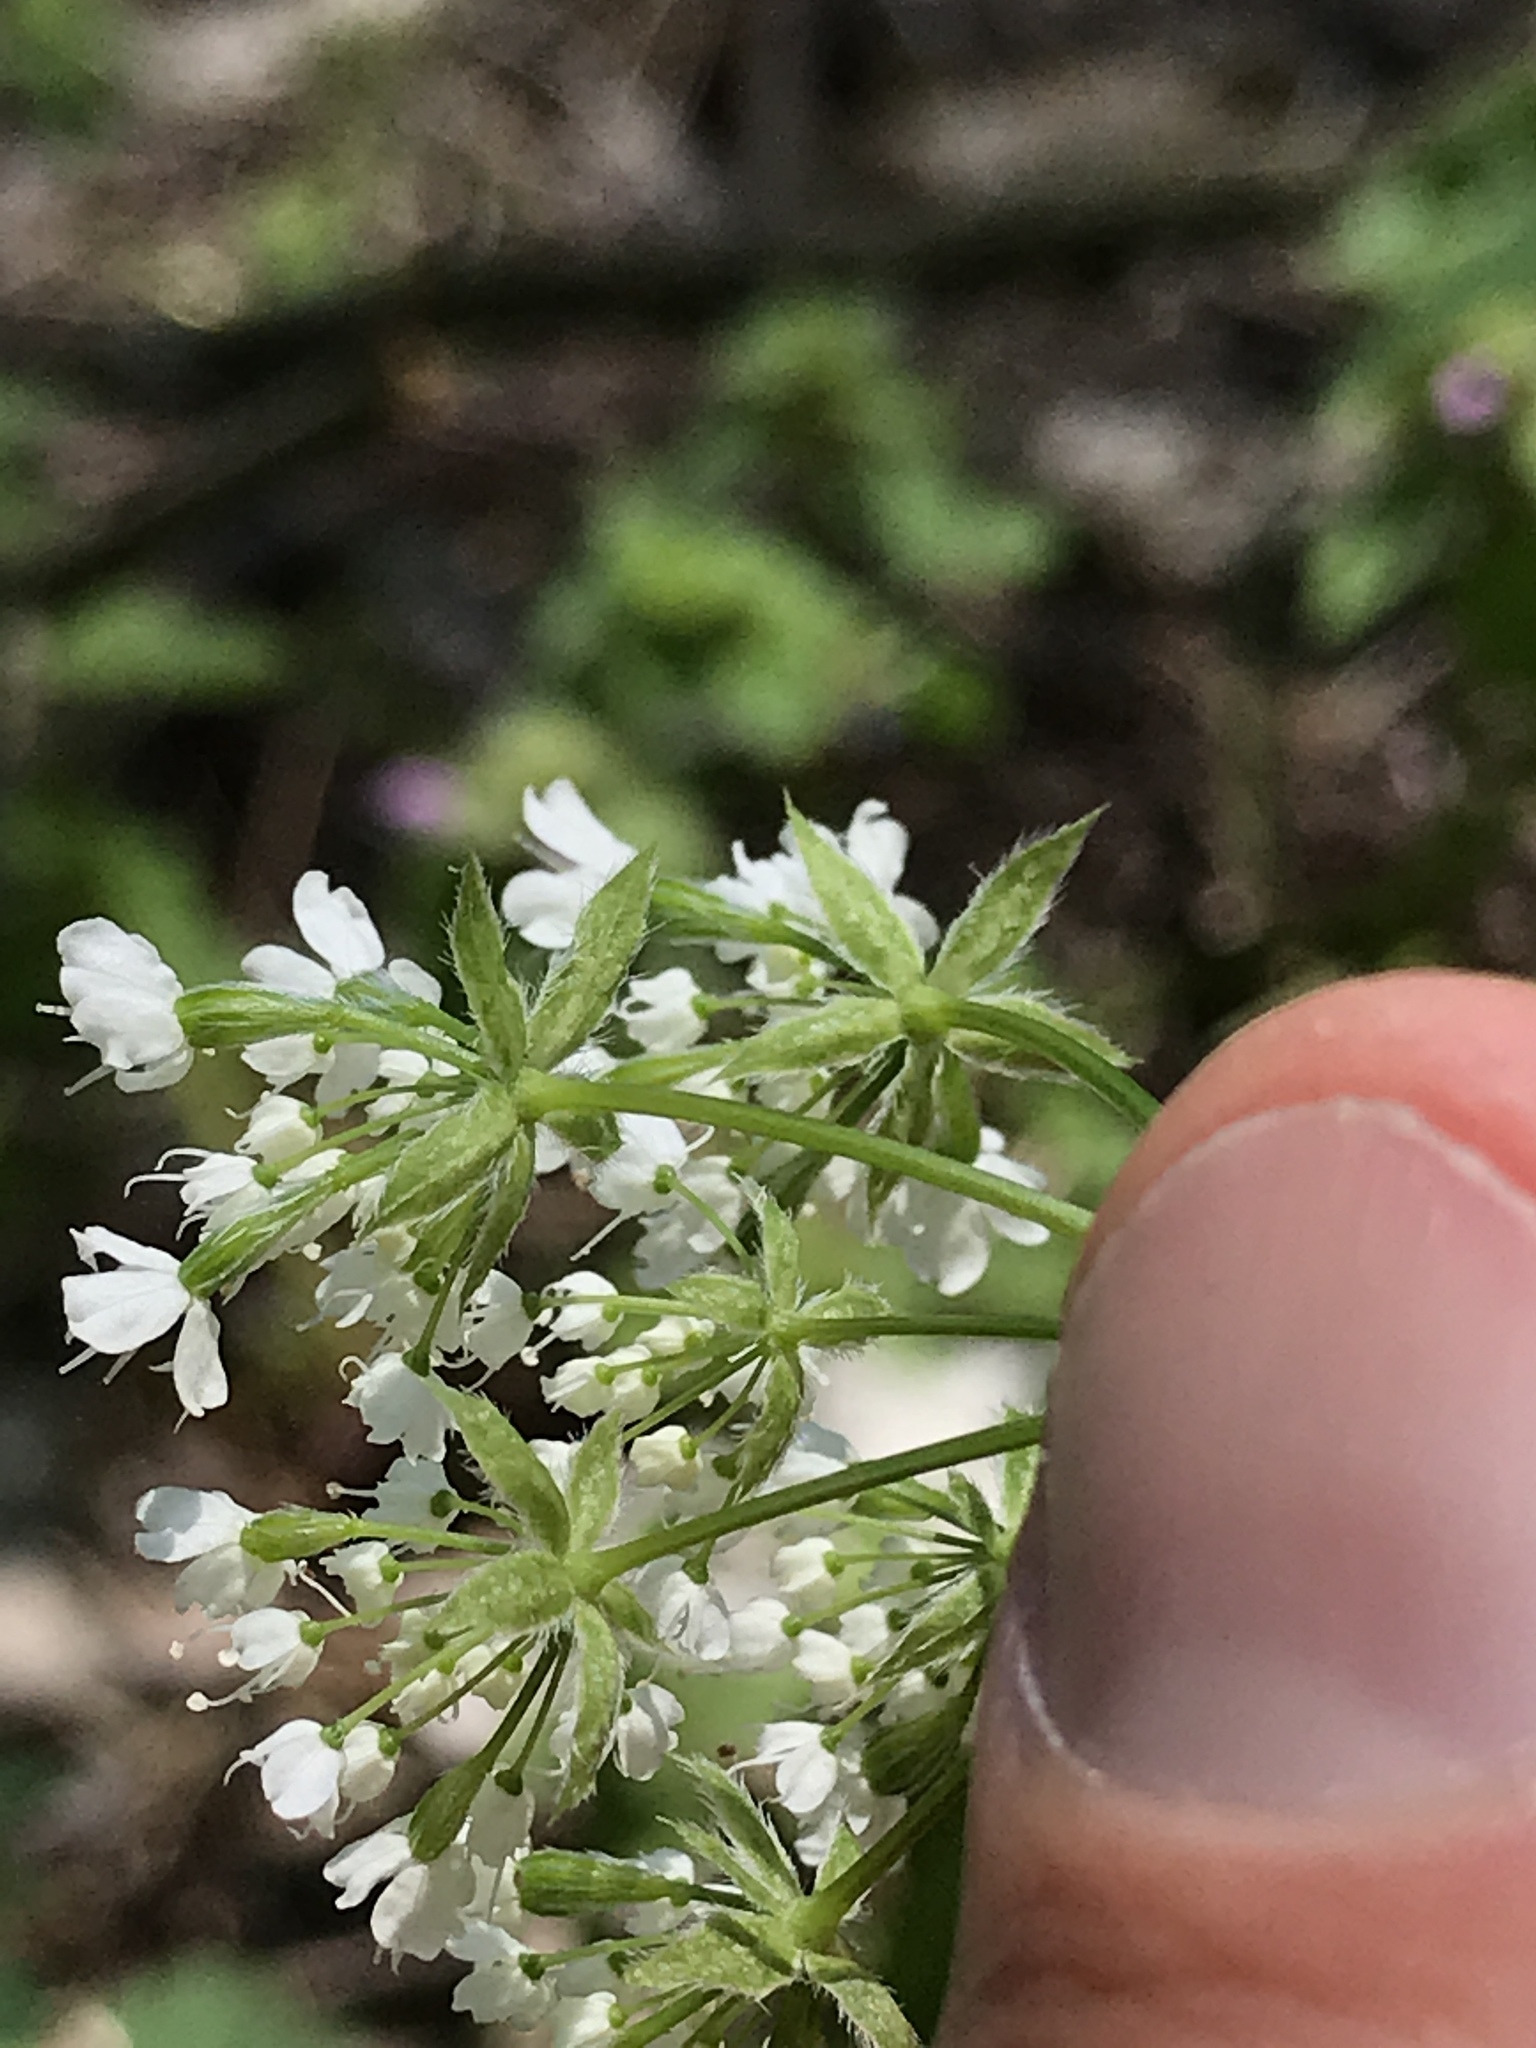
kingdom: Plantae
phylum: Tracheophyta
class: Magnoliopsida
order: Apiales
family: Apiaceae
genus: Osmorhiza
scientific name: Osmorhiza longistylis
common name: Smooth sweet cicely
